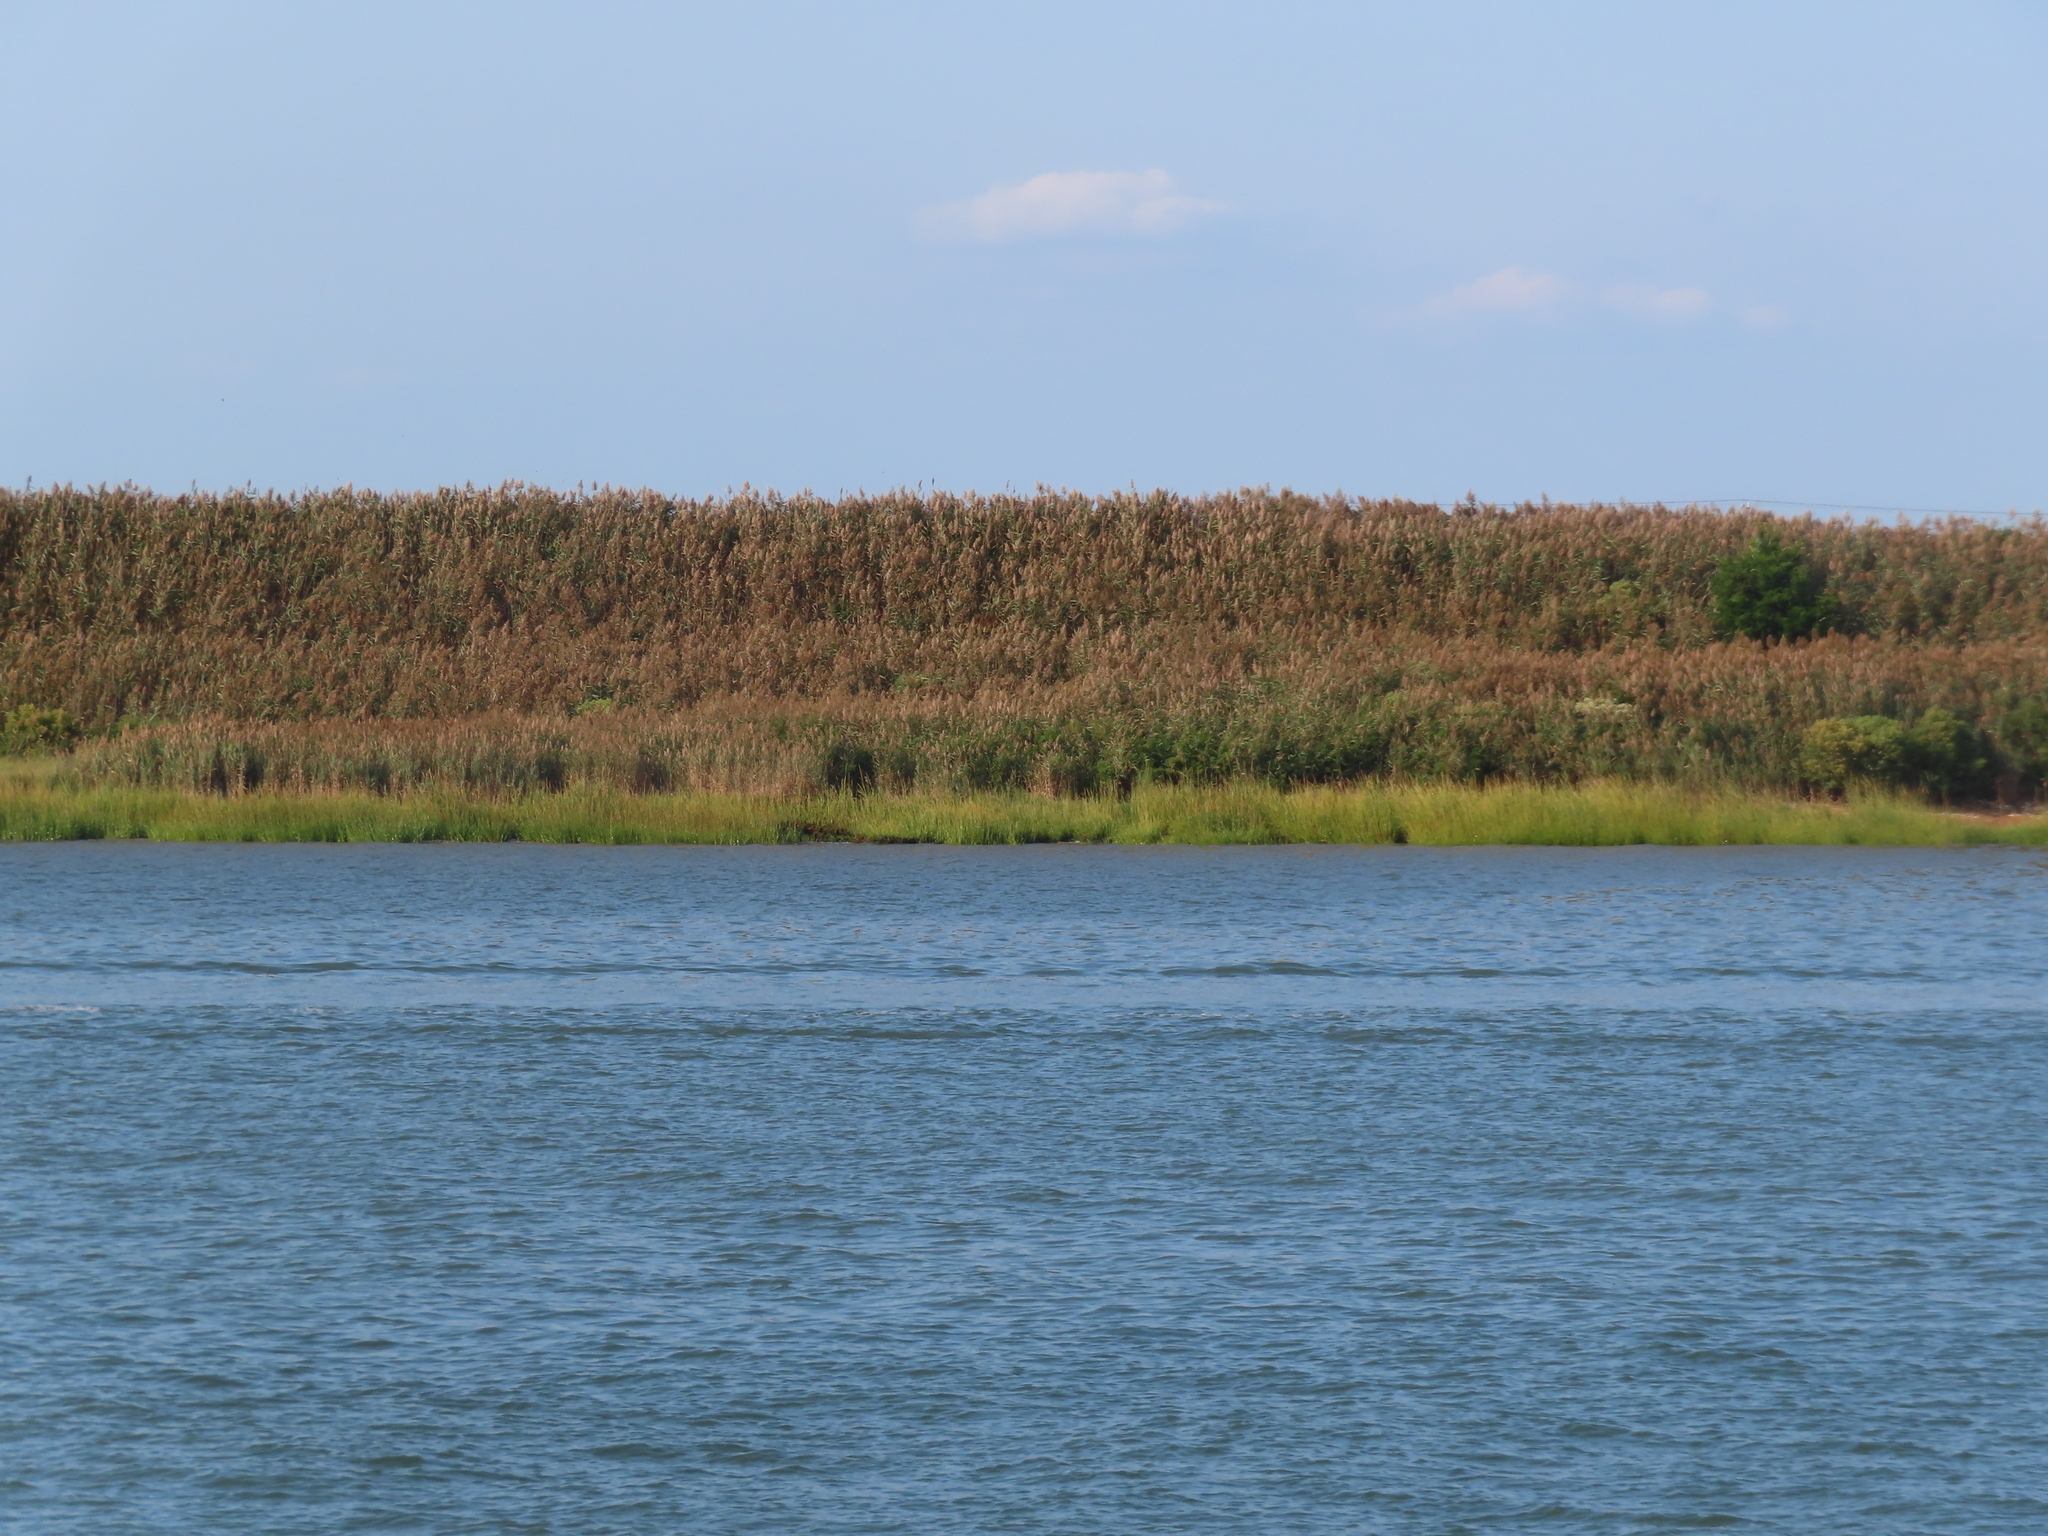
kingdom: Plantae
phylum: Tracheophyta
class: Liliopsida
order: Poales
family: Poaceae
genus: Phragmites
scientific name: Phragmites australis
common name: Common reed
